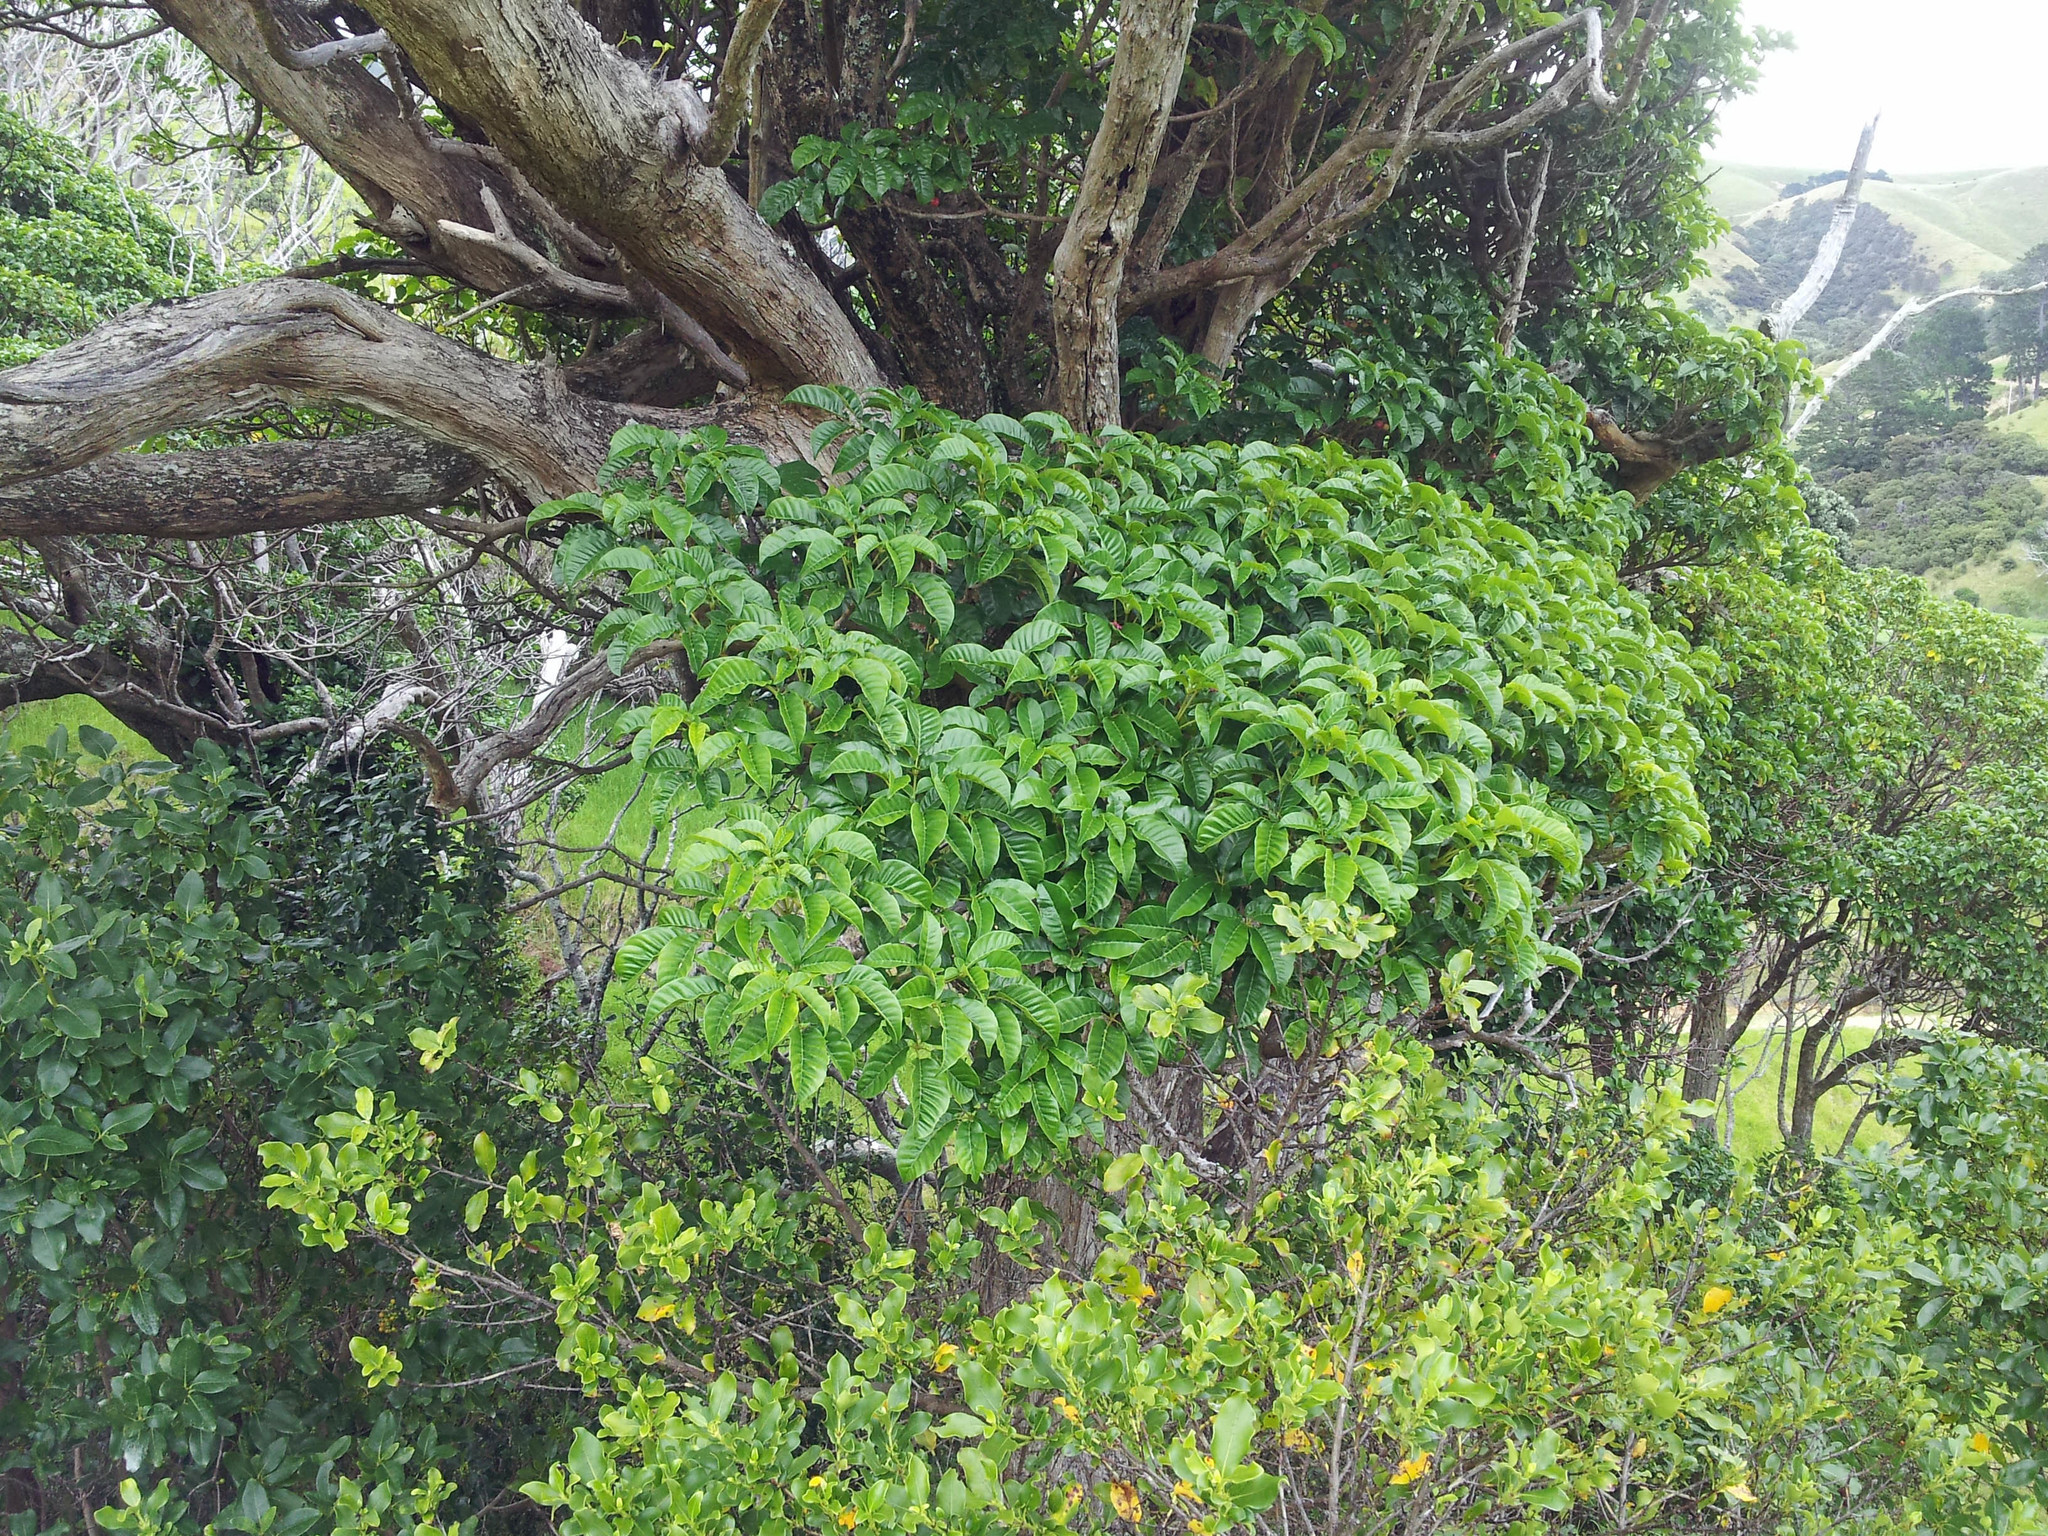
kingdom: Plantae
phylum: Tracheophyta
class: Magnoliopsida
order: Lamiales
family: Lamiaceae
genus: Vitex
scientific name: Vitex lucens
